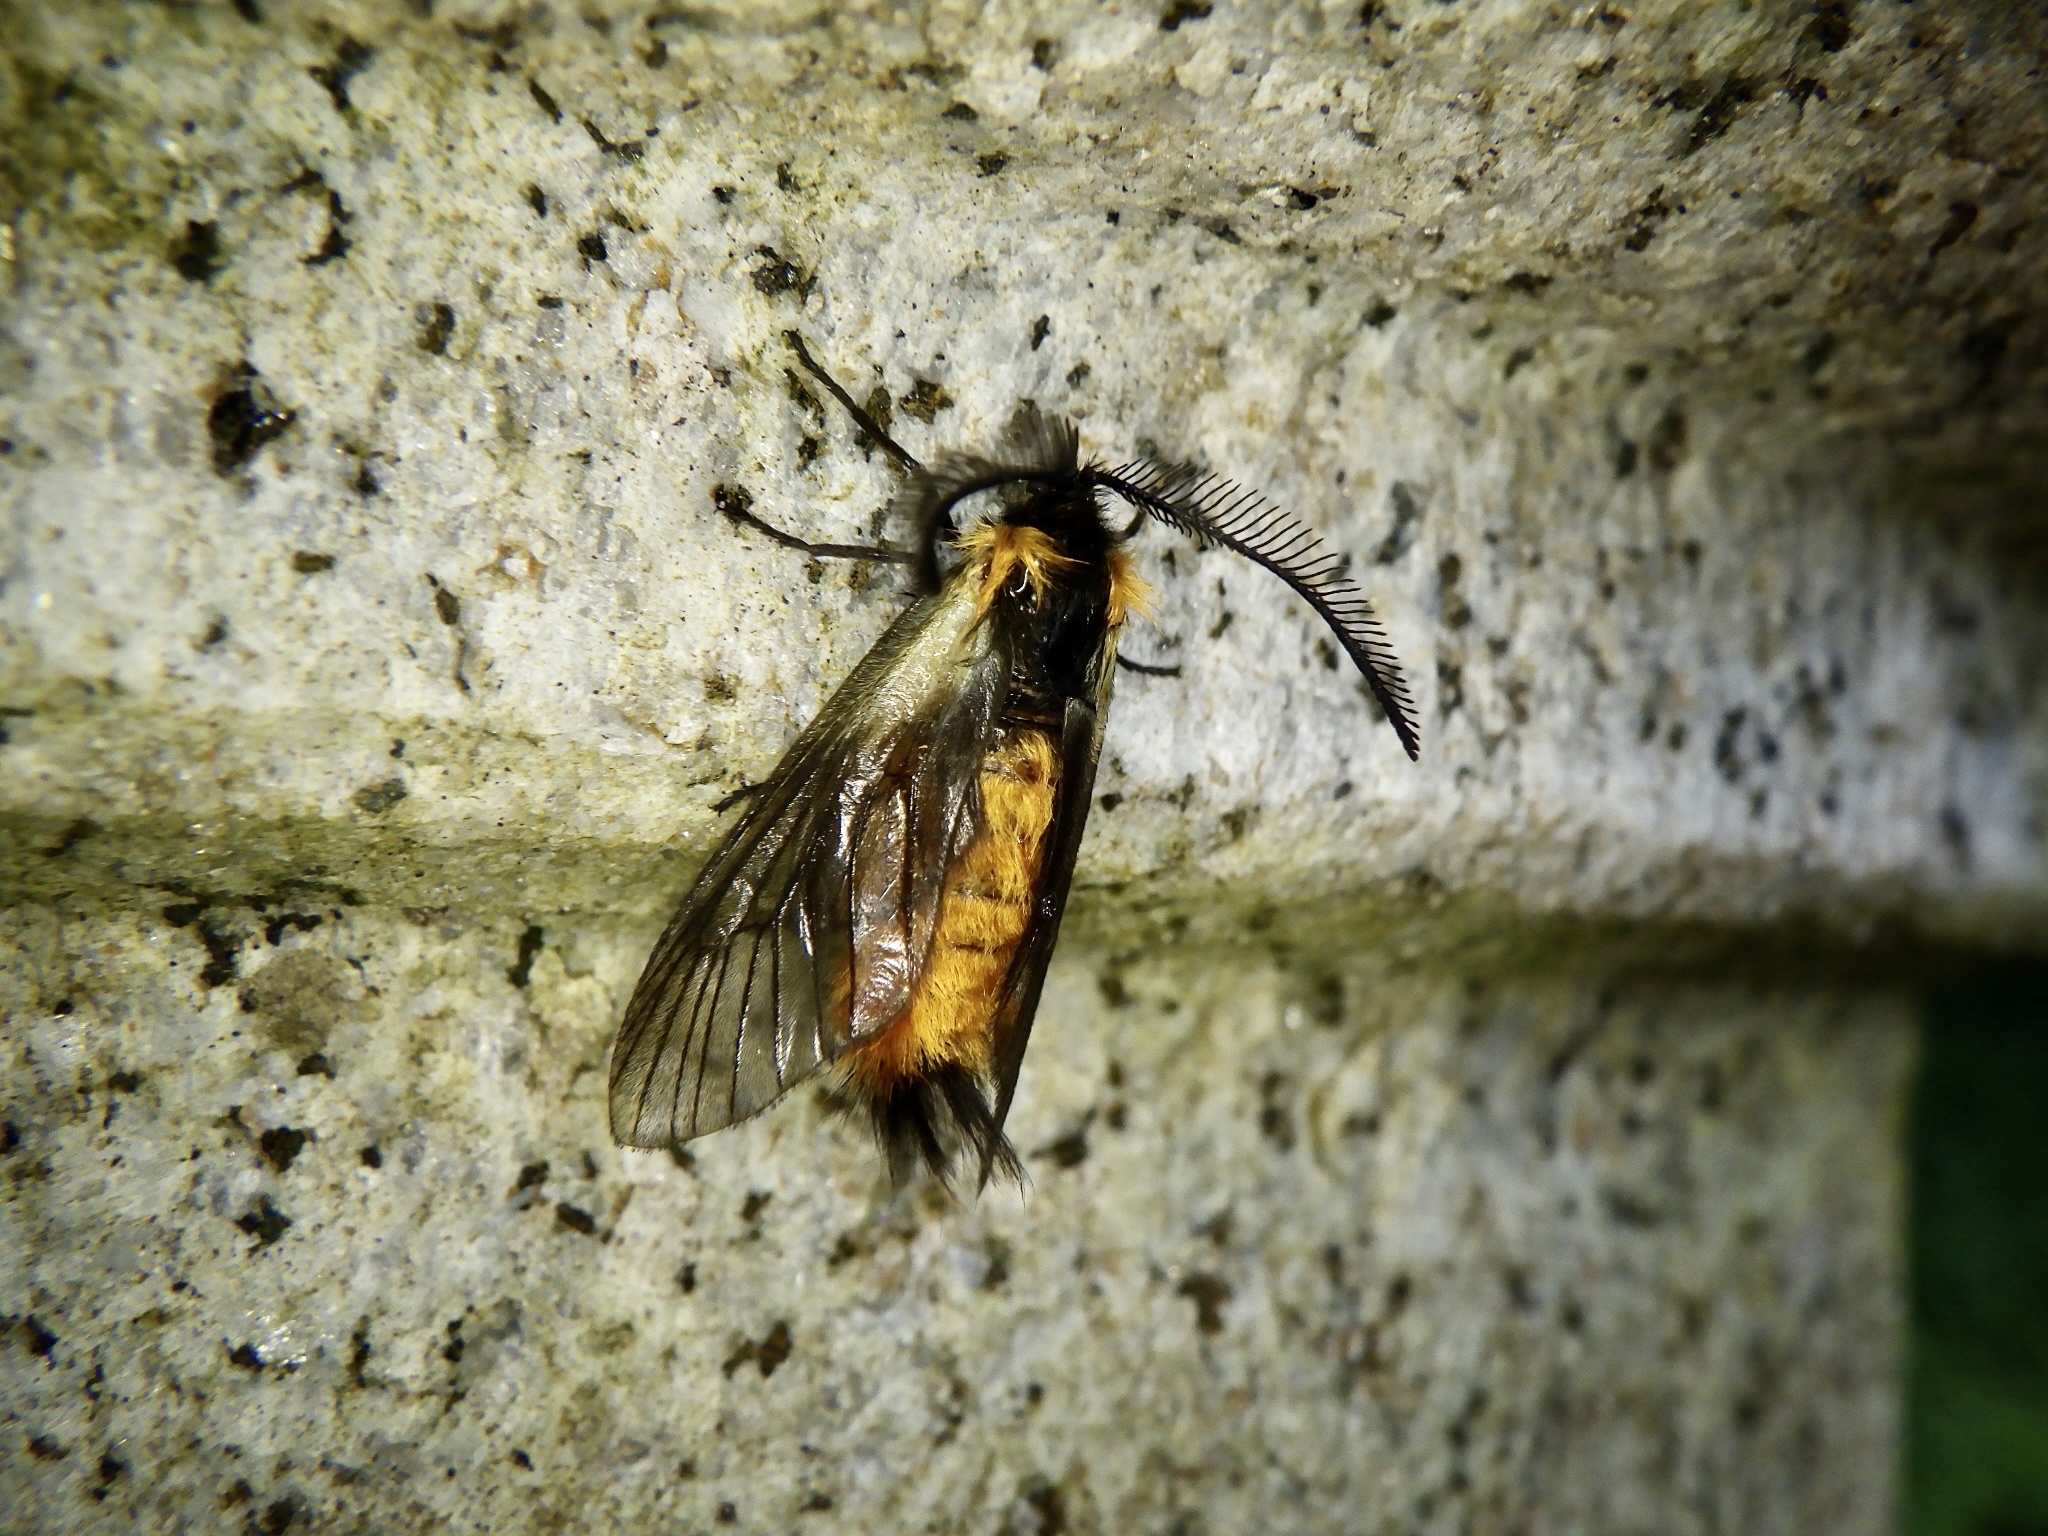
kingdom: Animalia
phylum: Arthropoda
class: Insecta
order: Lepidoptera
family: Zygaenidae
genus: Sinica
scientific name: Sinica sinica
